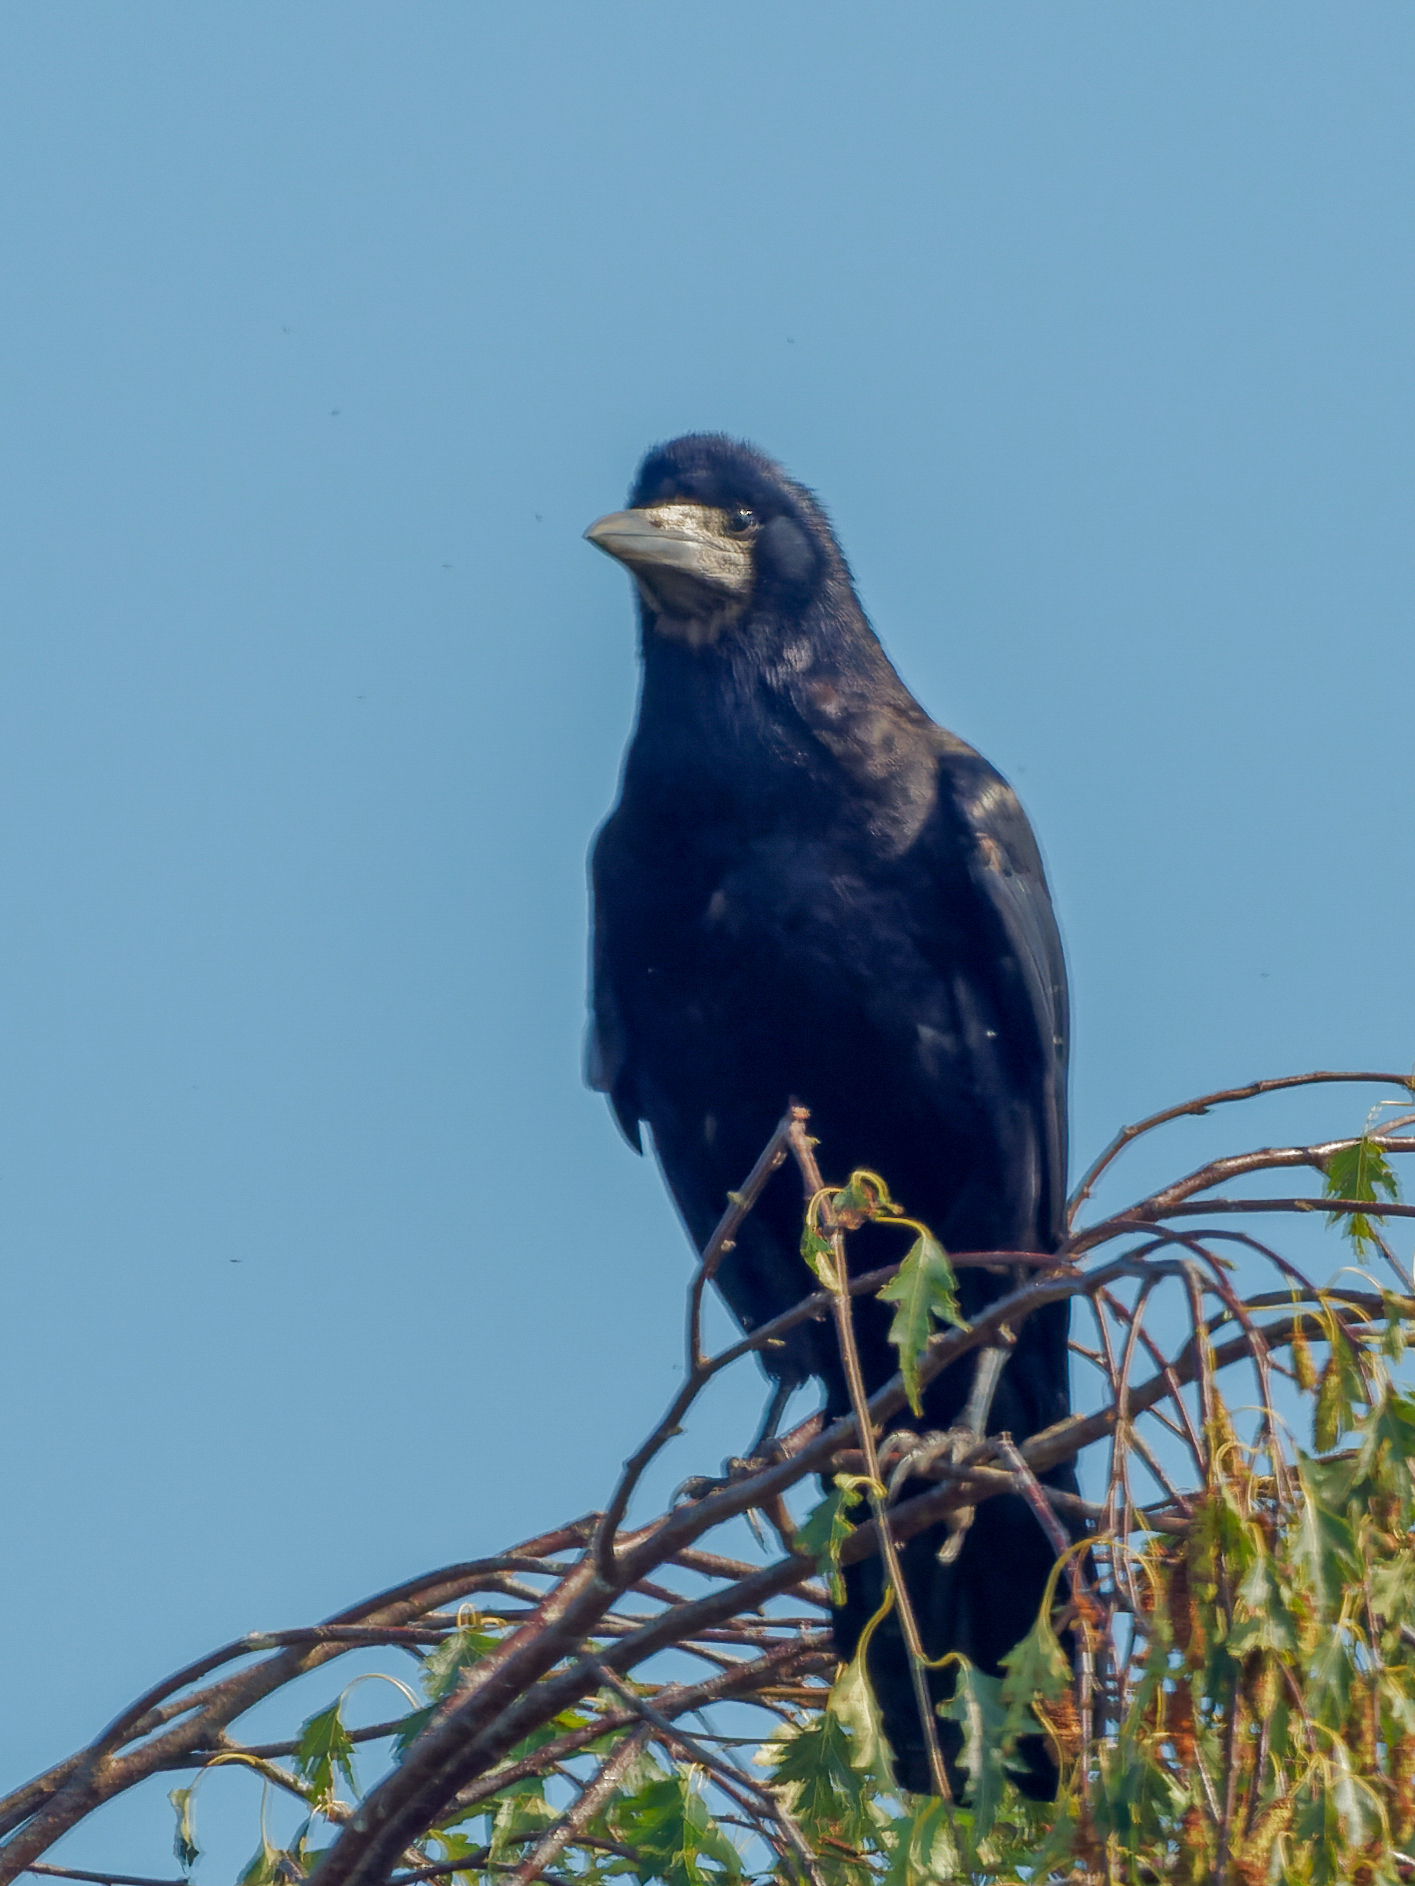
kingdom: Animalia
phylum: Chordata
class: Aves
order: Passeriformes
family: Corvidae
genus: Corvus
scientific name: Corvus frugilegus
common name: Rook
